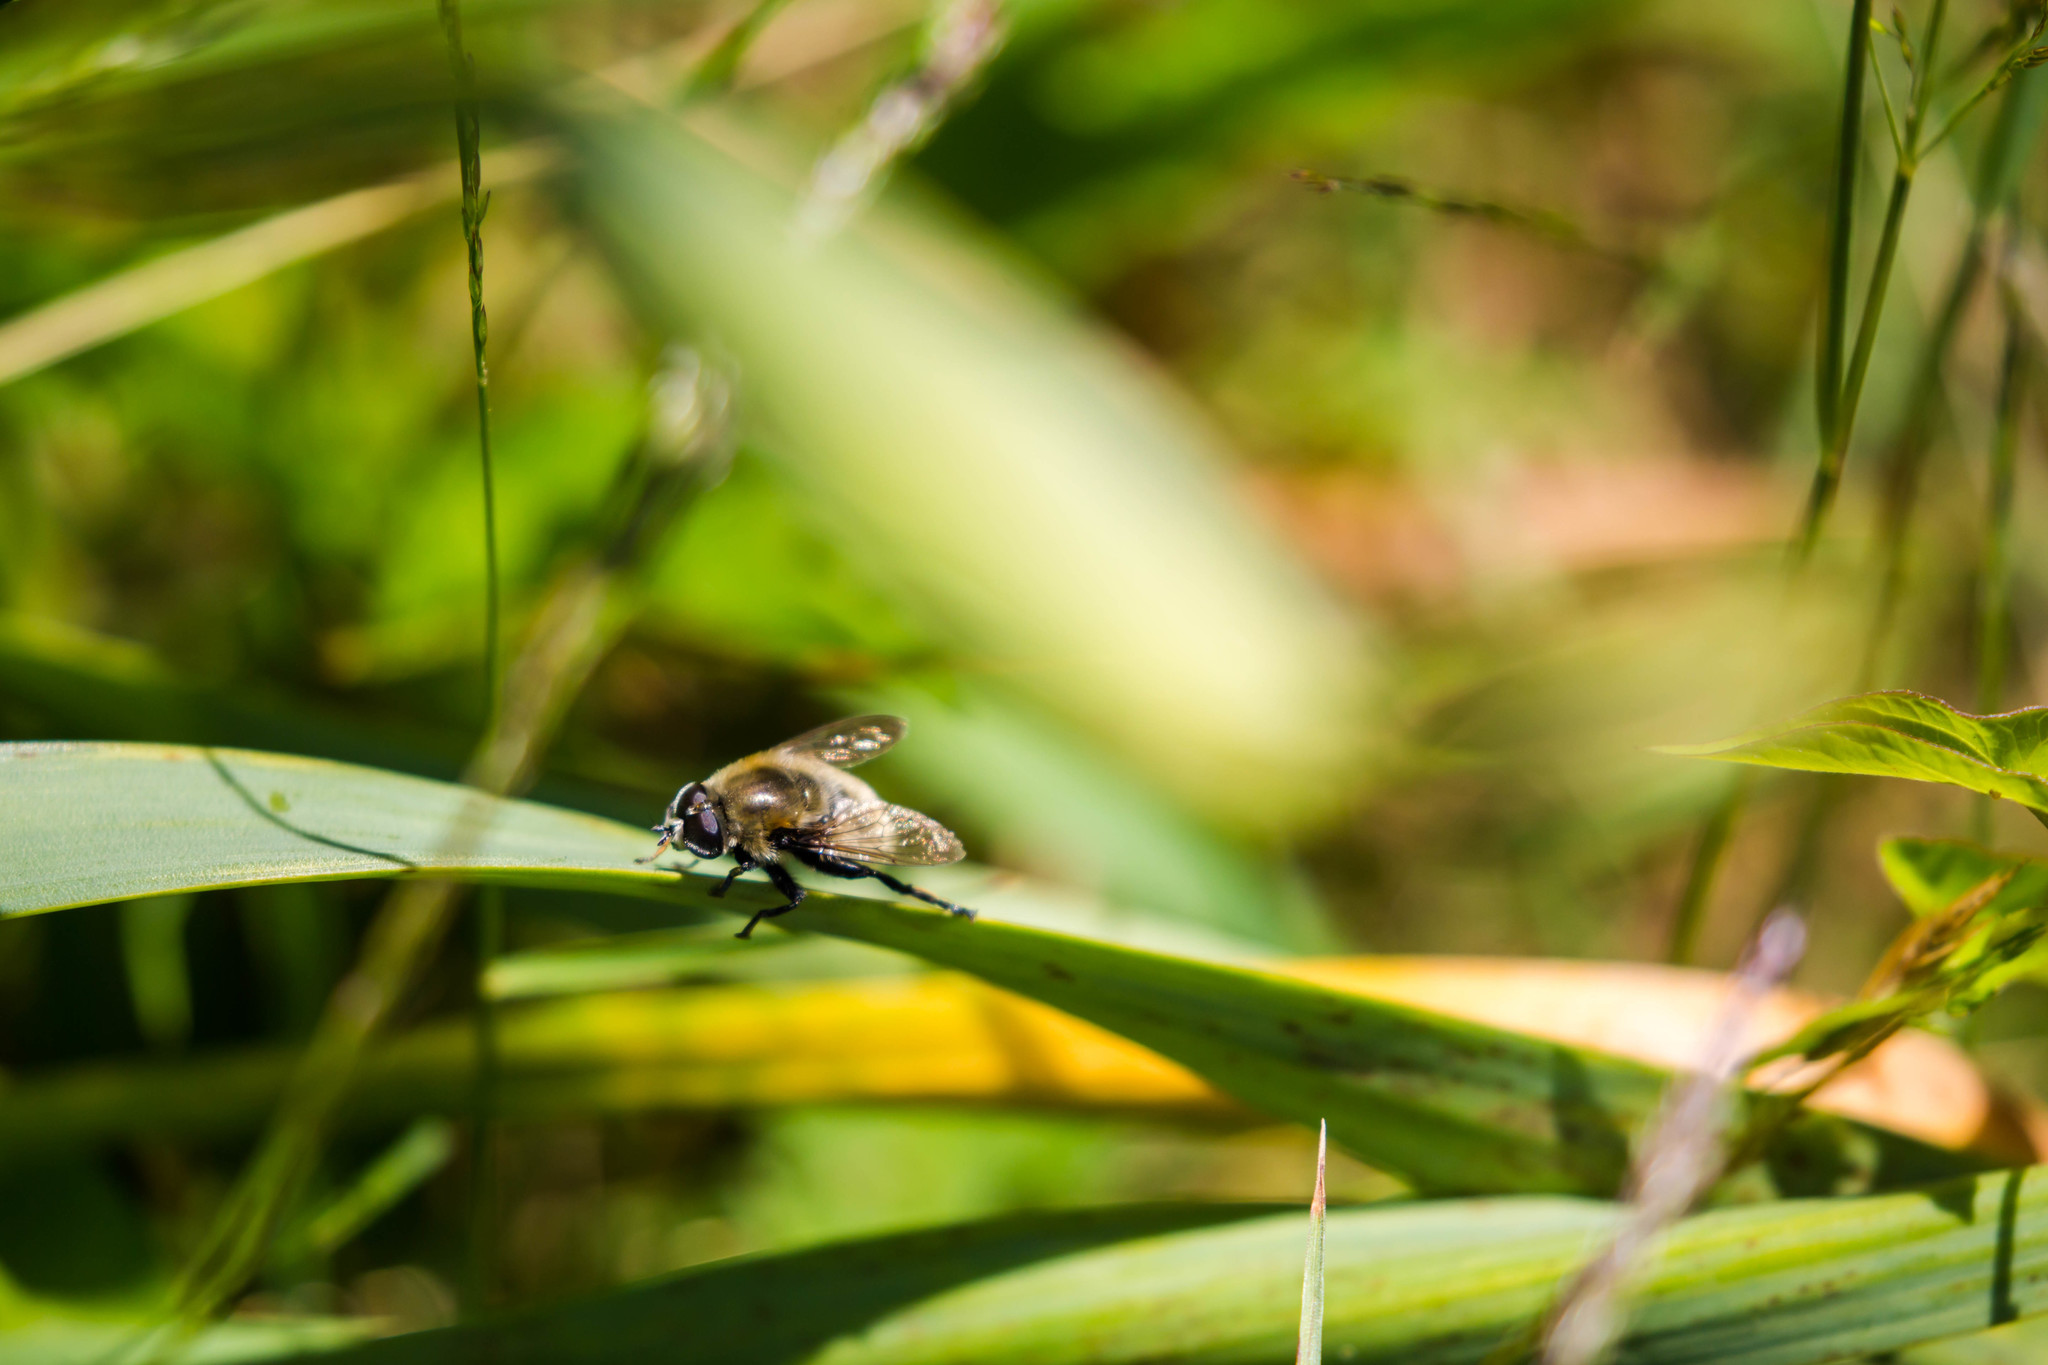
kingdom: Animalia
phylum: Arthropoda
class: Insecta
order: Diptera
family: Syrphidae
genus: Merodon
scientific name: Merodon equestris
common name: Greater bulb-fly
